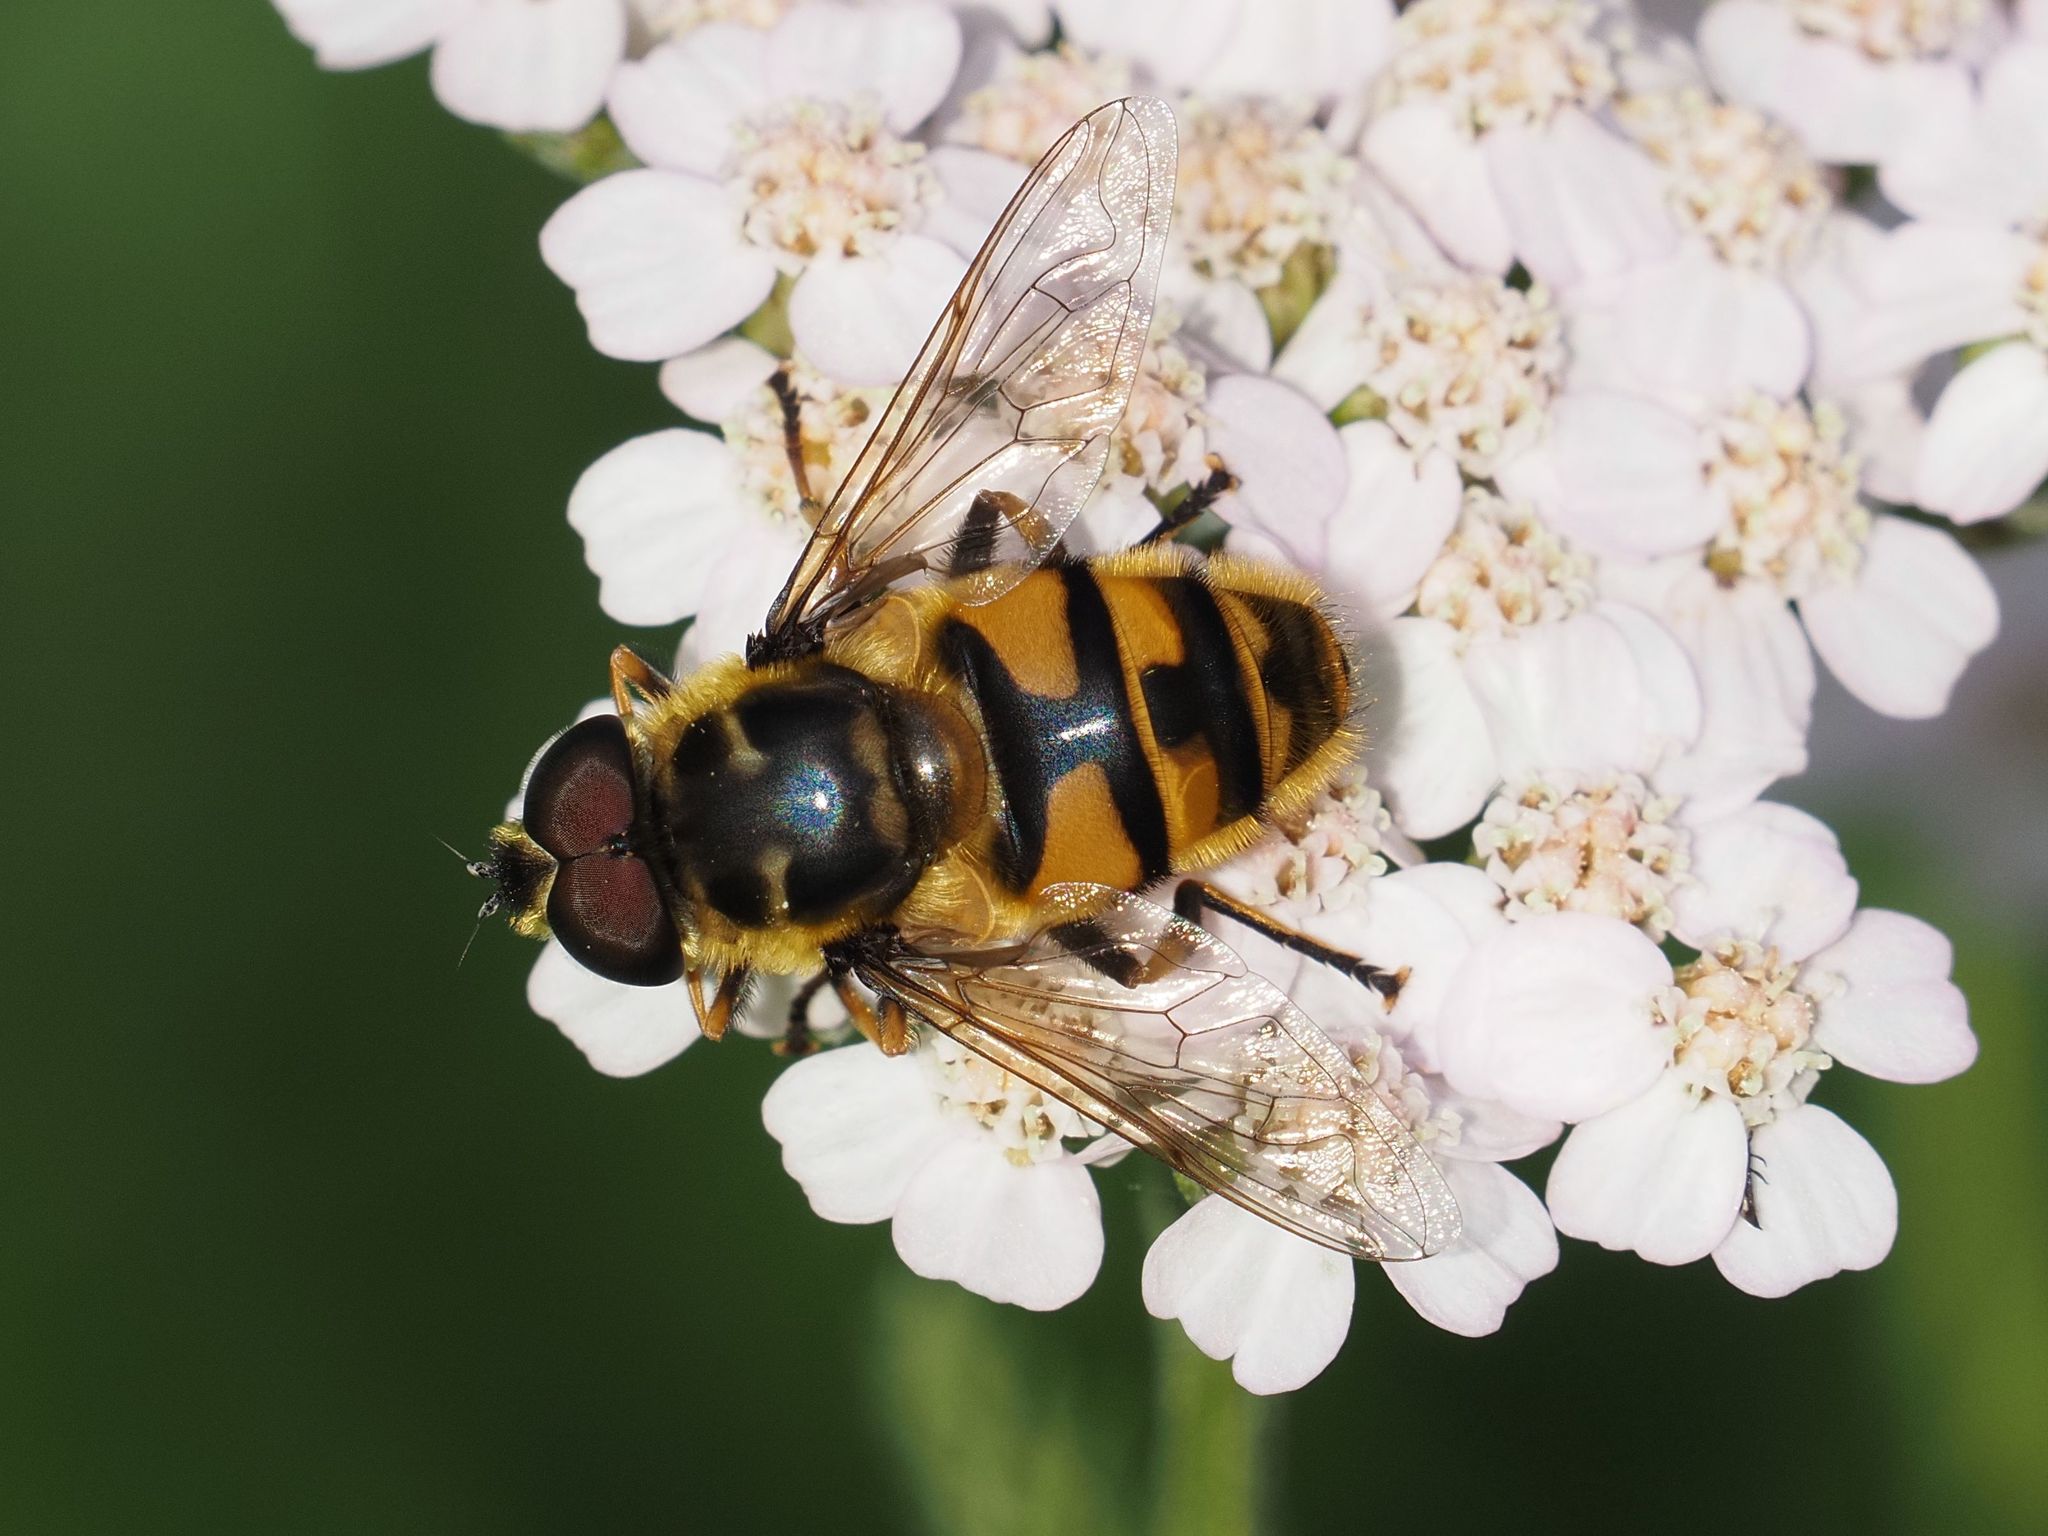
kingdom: Animalia
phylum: Arthropoda
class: Insecta
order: Diptera
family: Syrphidae
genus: Myathropa
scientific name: Myathropa florea
